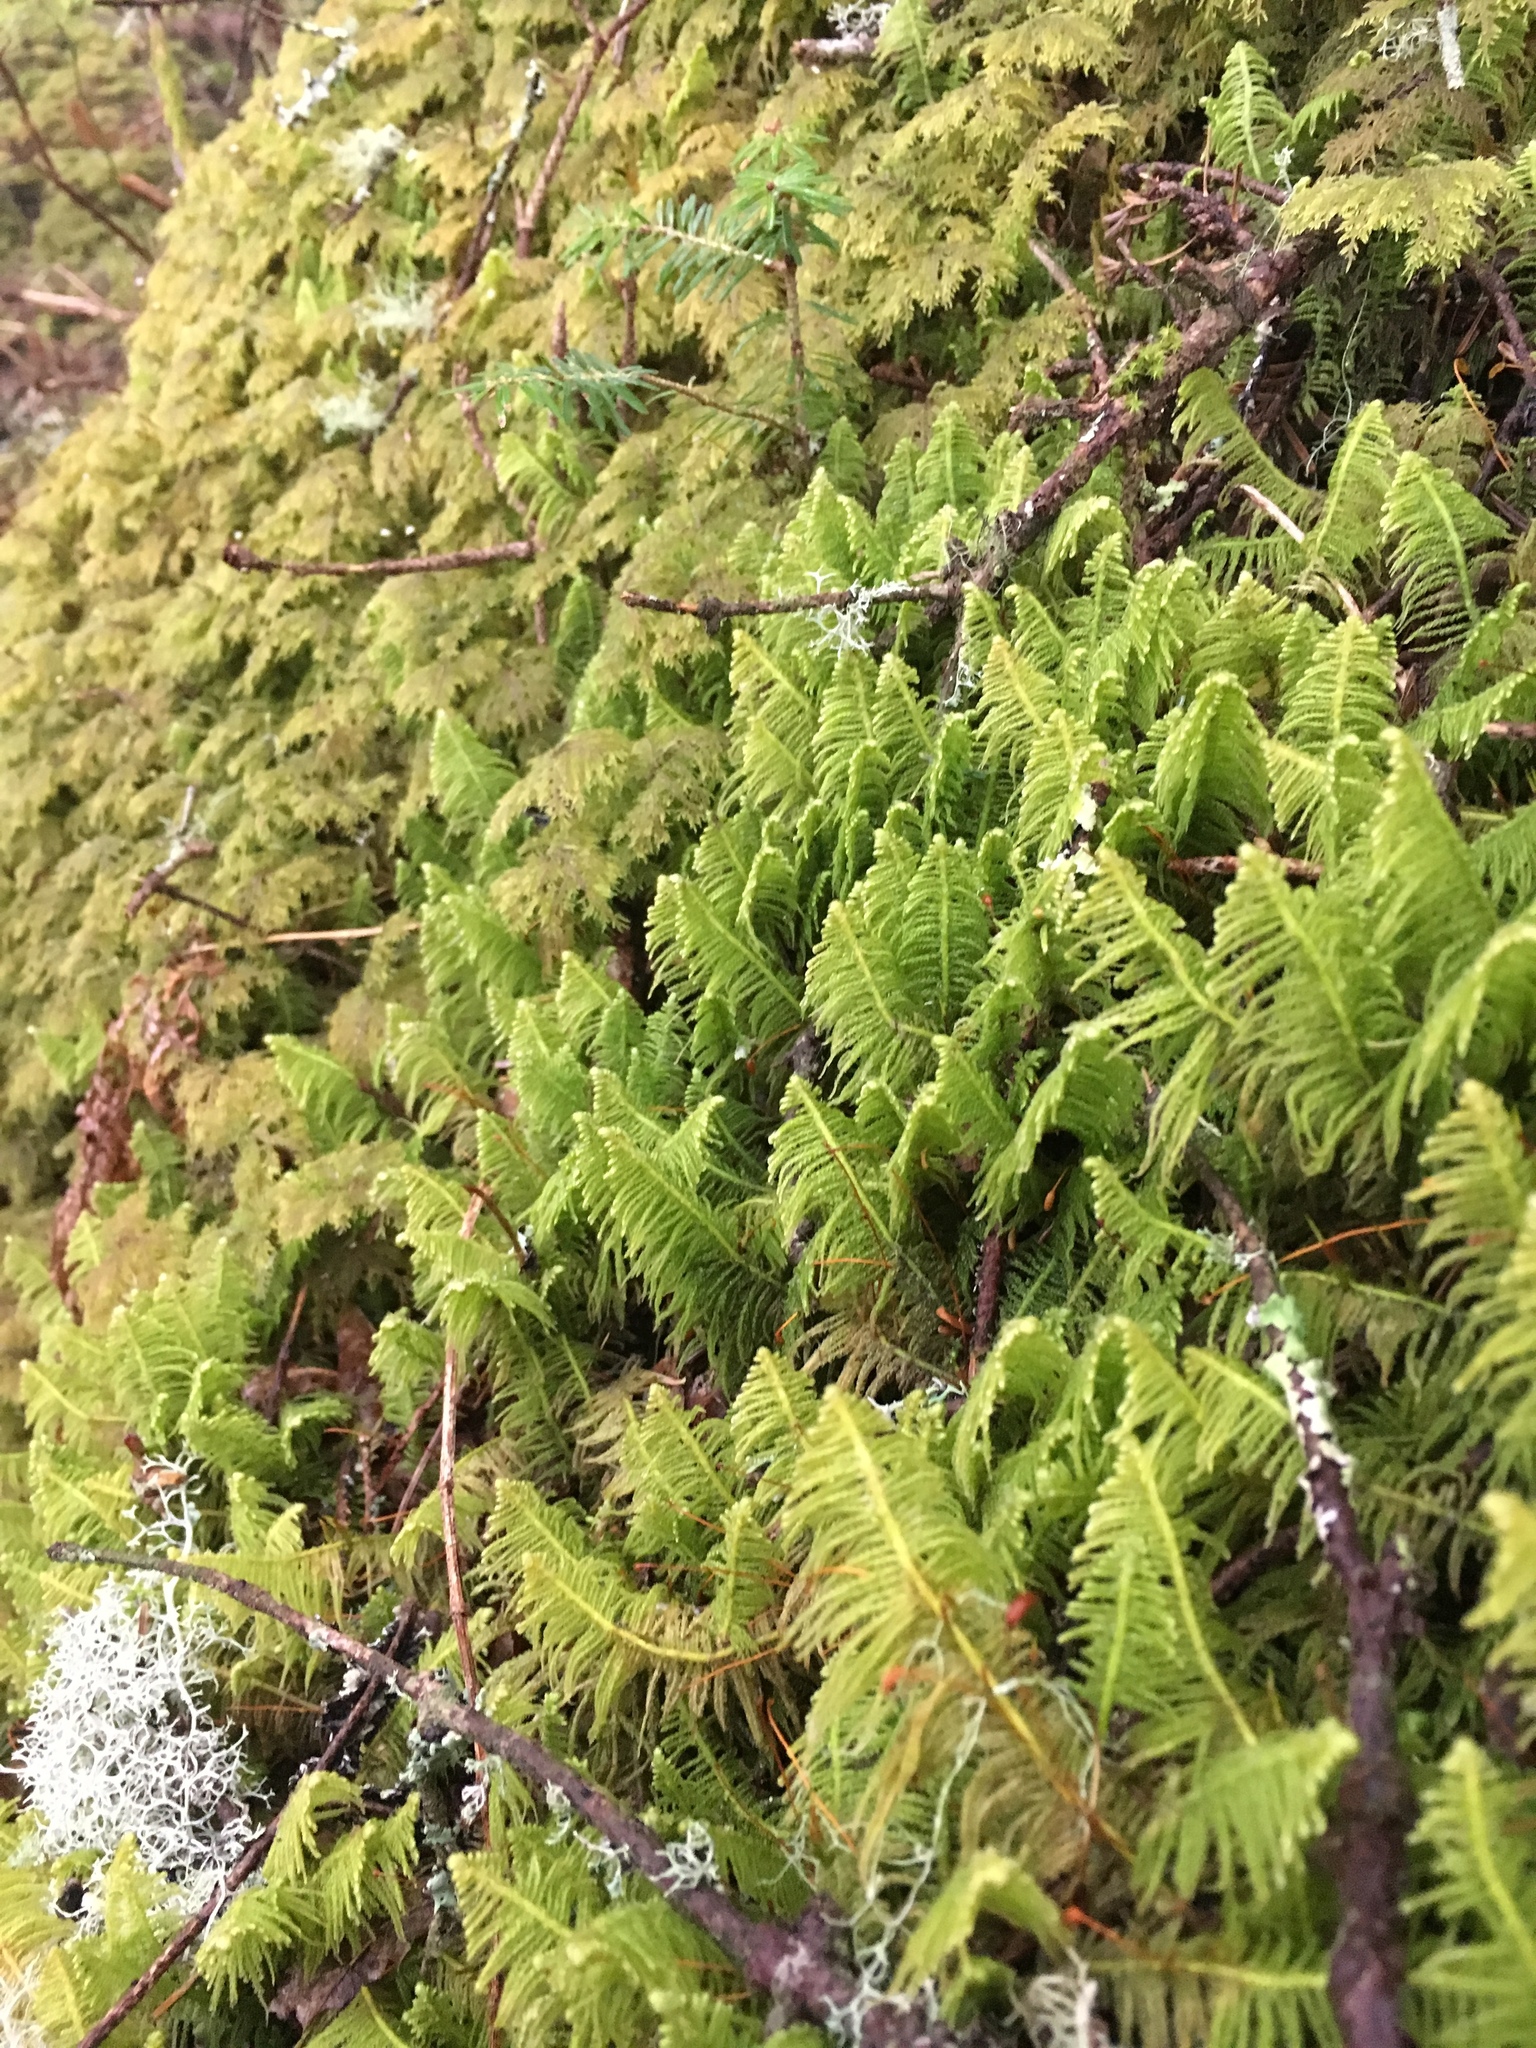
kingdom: Plantae
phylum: Bryophyta
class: Bryopsida
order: Hypnales
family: Pylaisiaceae
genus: Ptilium
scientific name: Ptilium crista-castrensis
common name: Knight's plume moss
